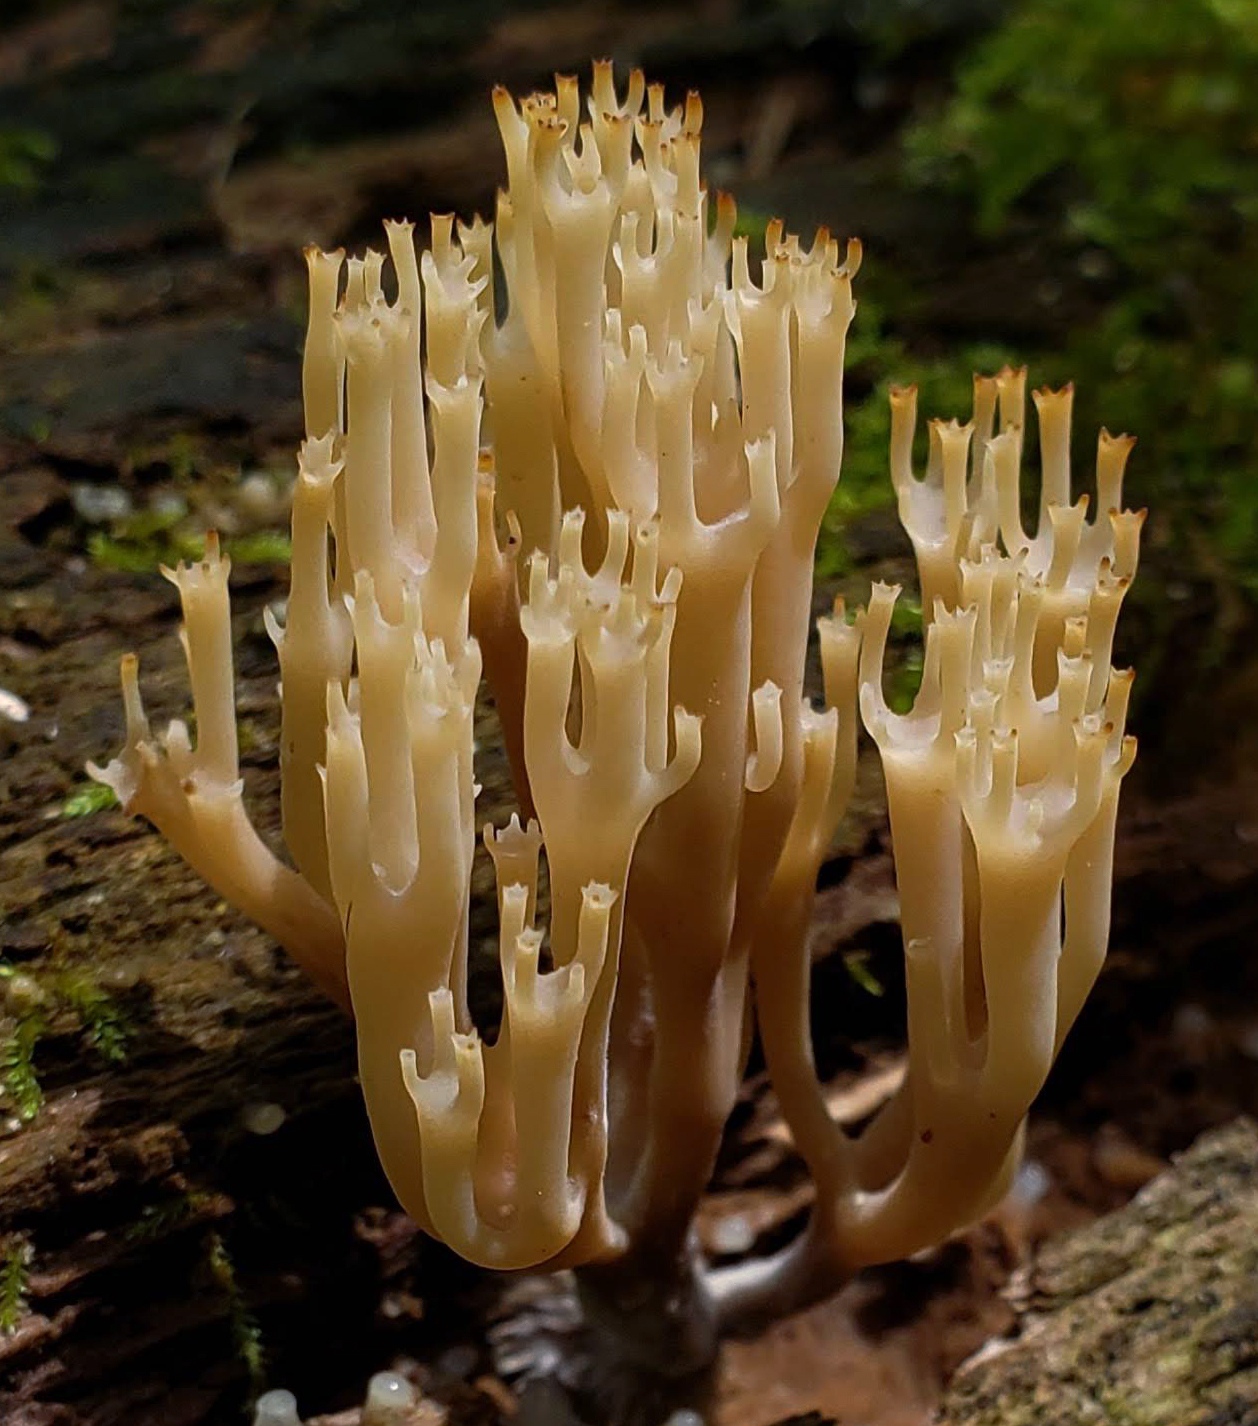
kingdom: Fungi
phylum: Basidiomycota
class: Agaricomycetes
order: Russulales
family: Auriscalpiaceae
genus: Artomyces
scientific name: Artomyces pyxidatus
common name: Crown-tipped coral fungus
